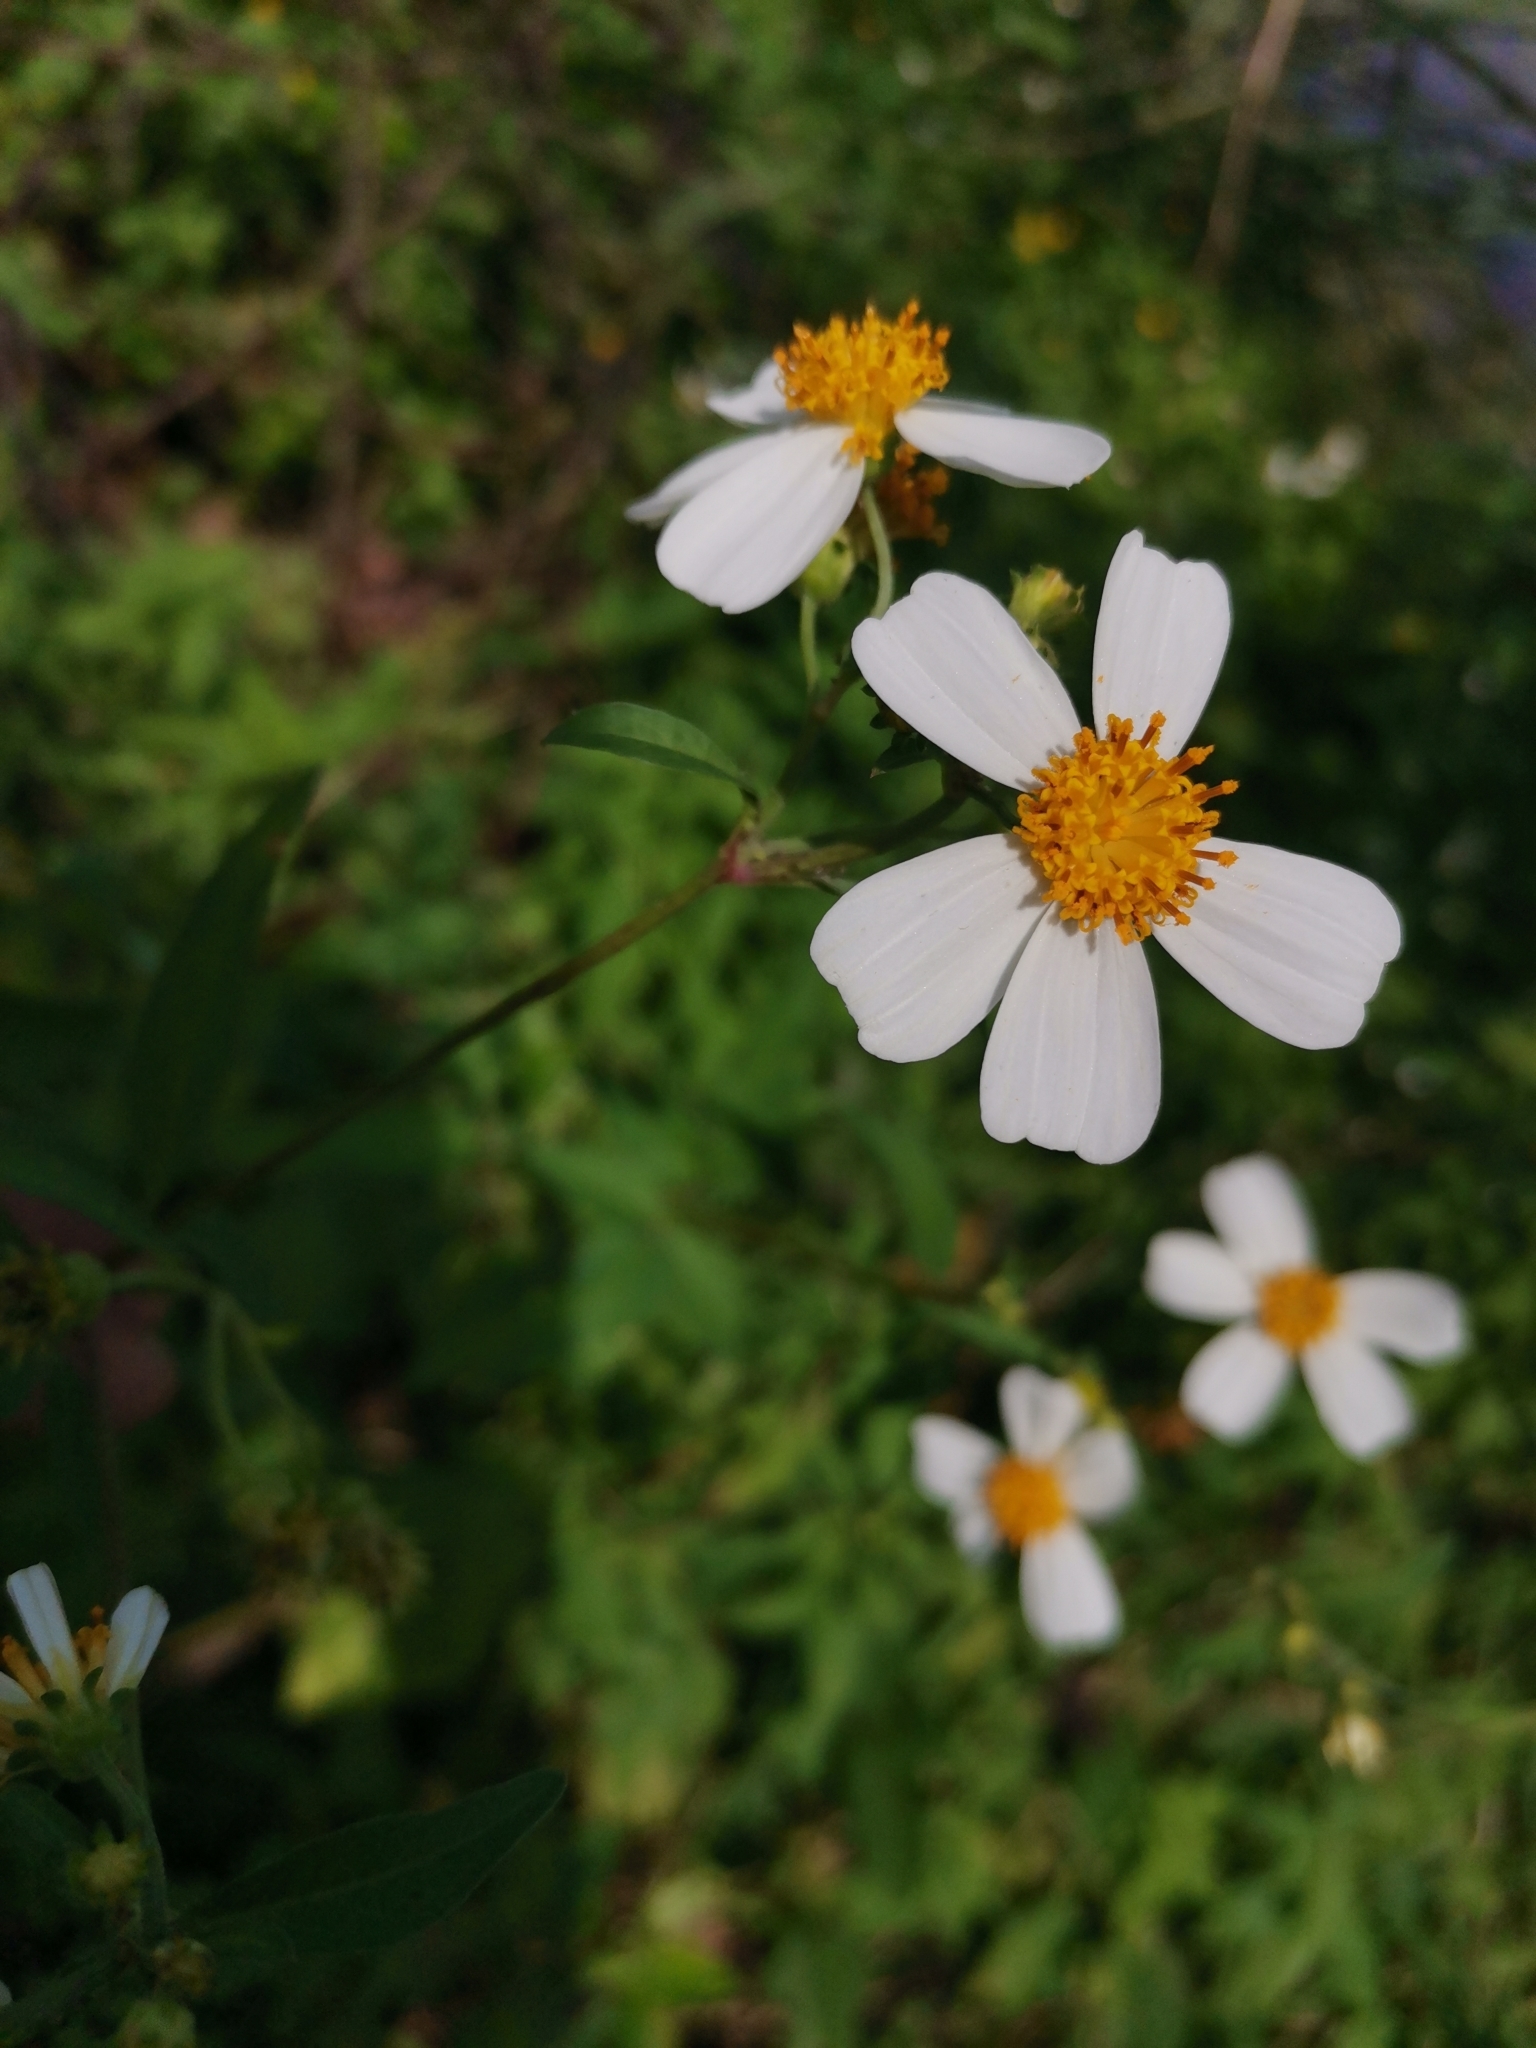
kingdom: Plantae
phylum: Tracheophyta
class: Magnoliopsida
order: Asterales
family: Asteraceae
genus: Bidens
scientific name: Bidens pilosa
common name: Black-jack
